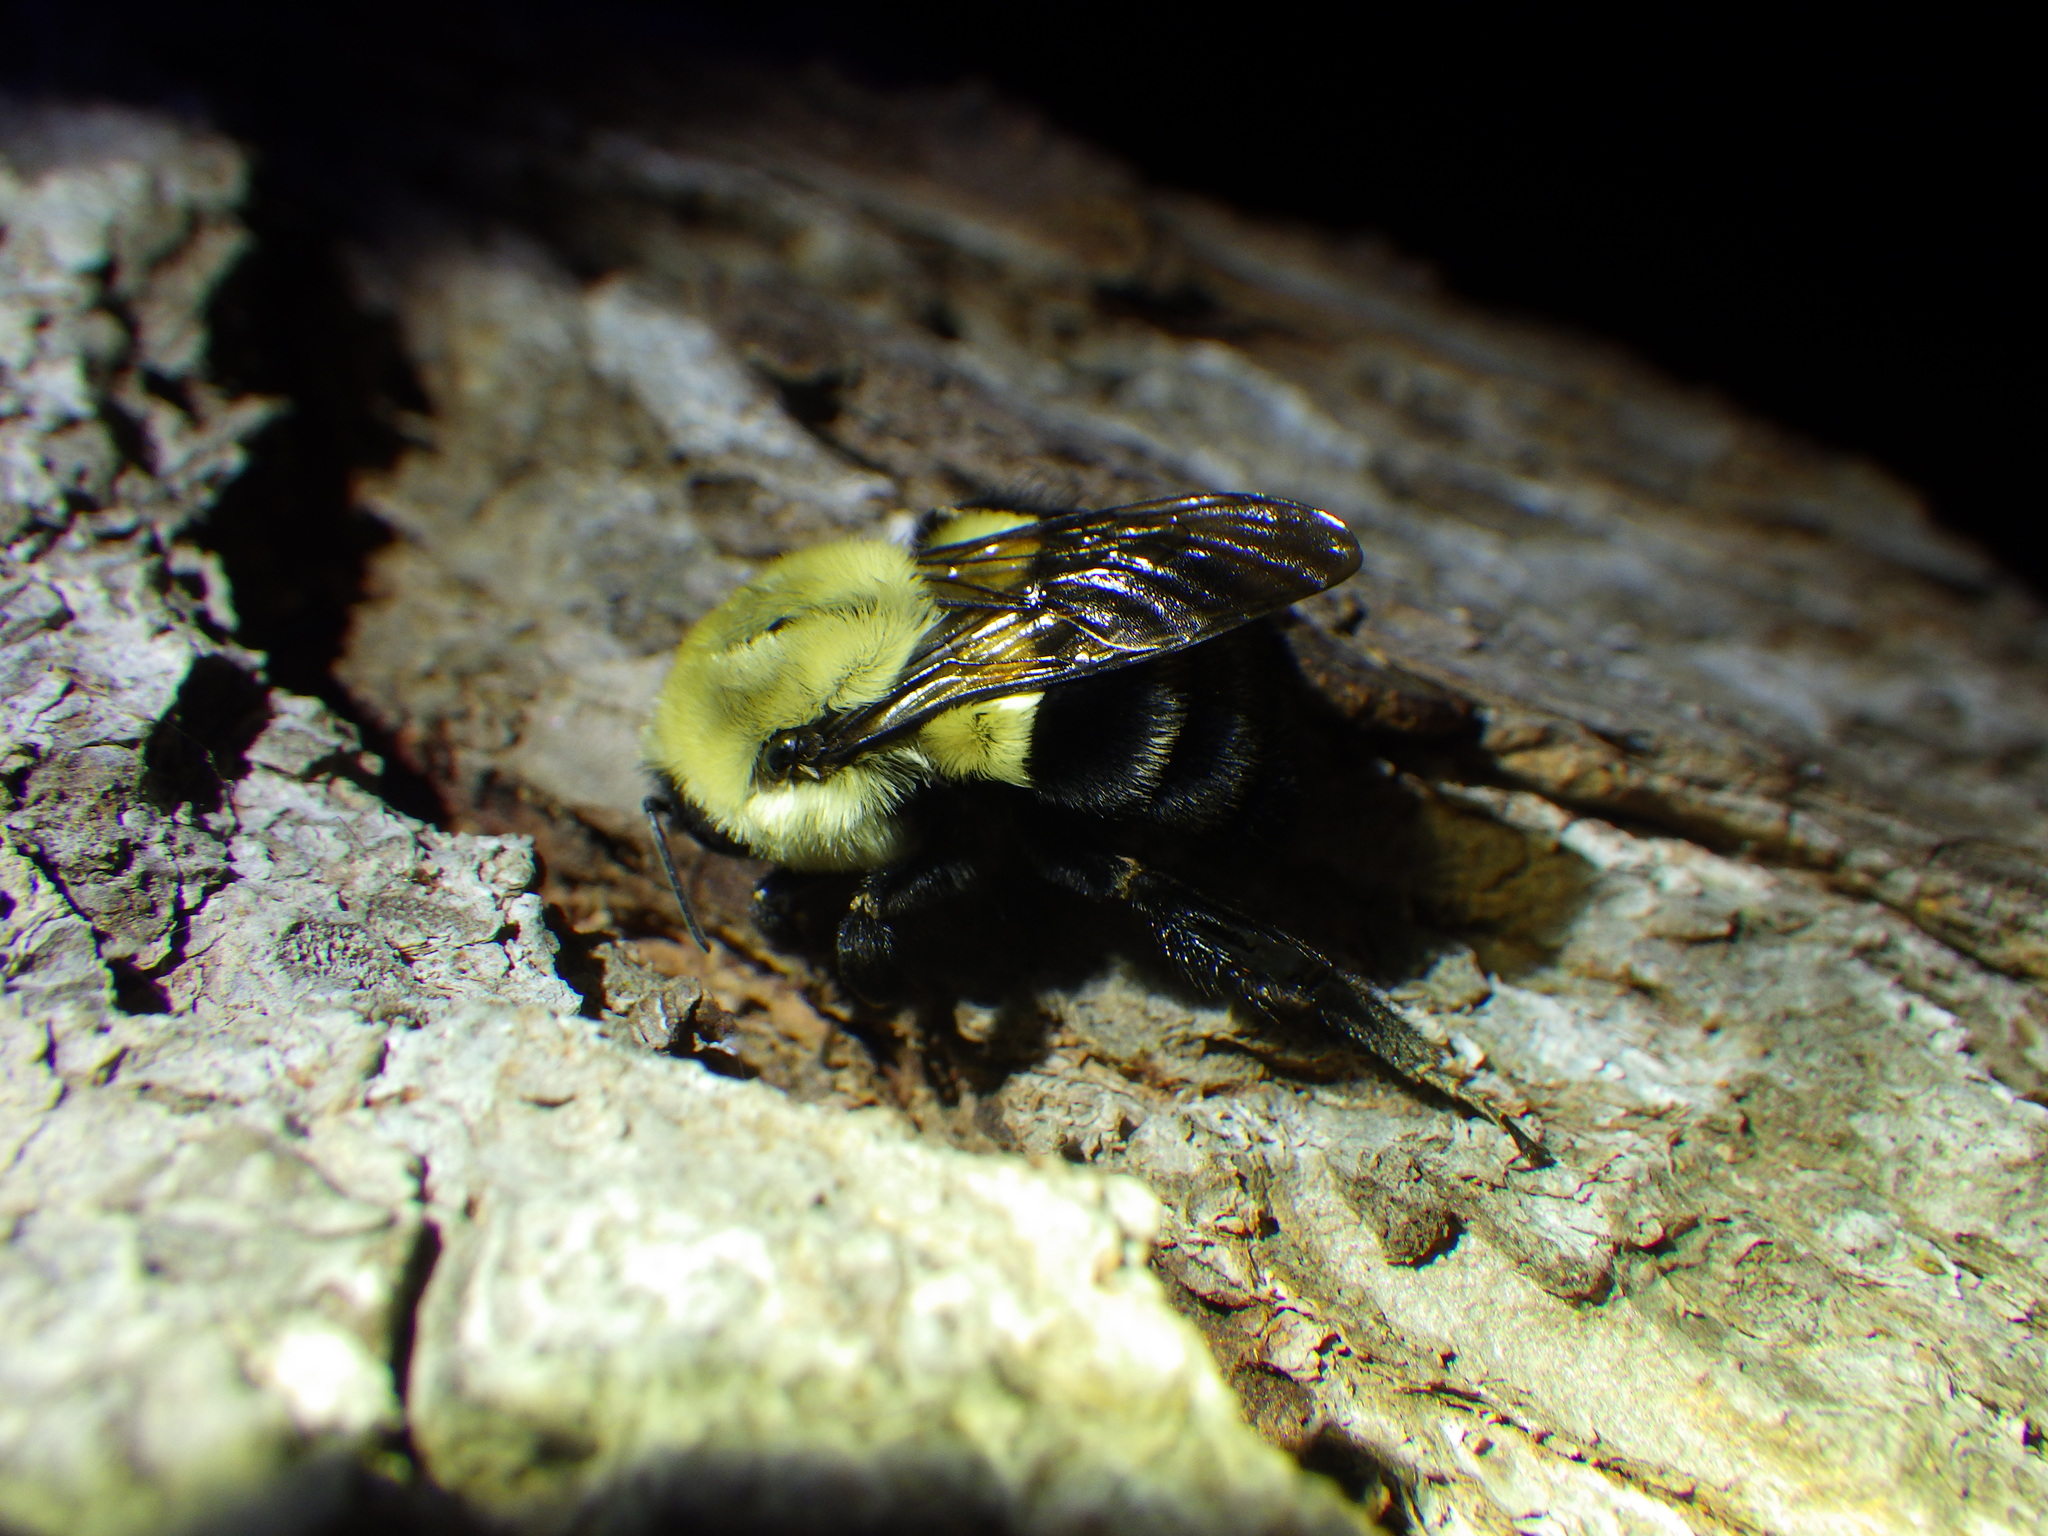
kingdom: Animalia
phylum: Arthropoda
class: Insecta
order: Hymenoptera
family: Apidae
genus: Bombus
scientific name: Bombus impatiens
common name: Common eastern bumble bee
